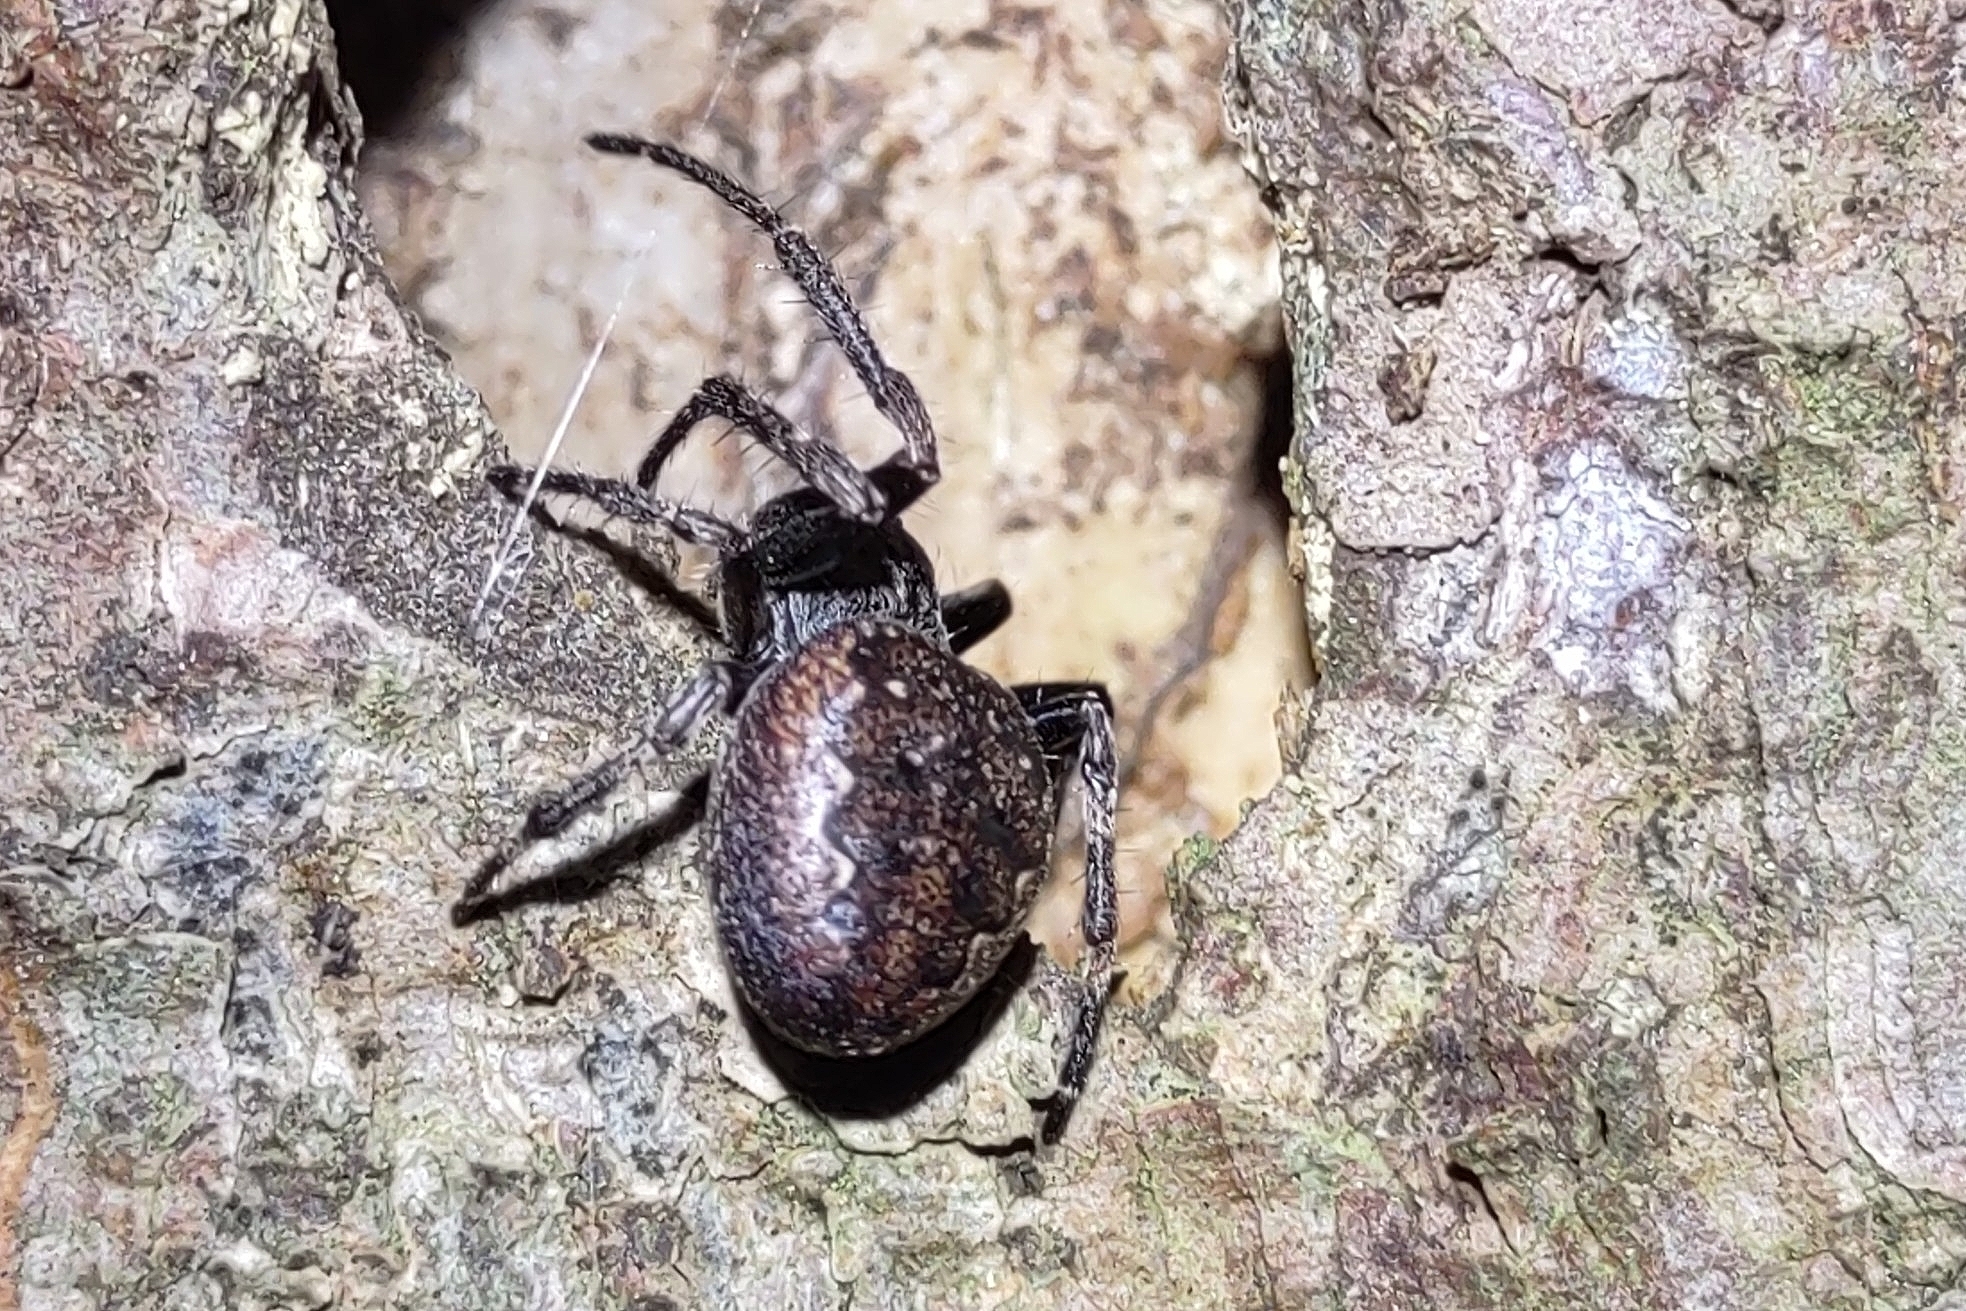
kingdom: Animalia
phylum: Arthropoda
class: Arachnida
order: Araneae
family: Araneidae
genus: Nuctenea
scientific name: Nuctenea umbratica
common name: Toad spider
